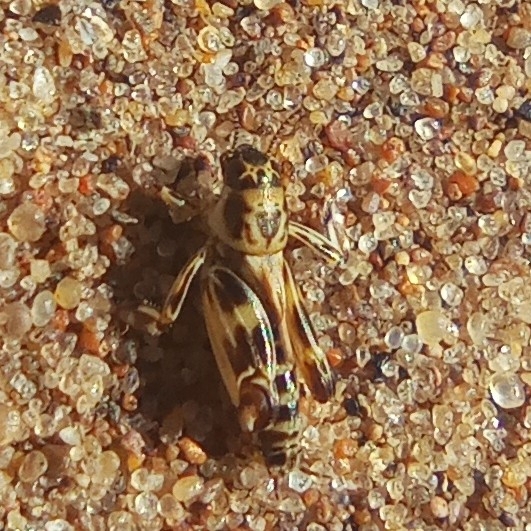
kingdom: Animalia
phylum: Arthropoda
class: Insecta
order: Orthoptera
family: Tridactylidae
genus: Xya
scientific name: Xya variegata
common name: Le tridactyle panaché
